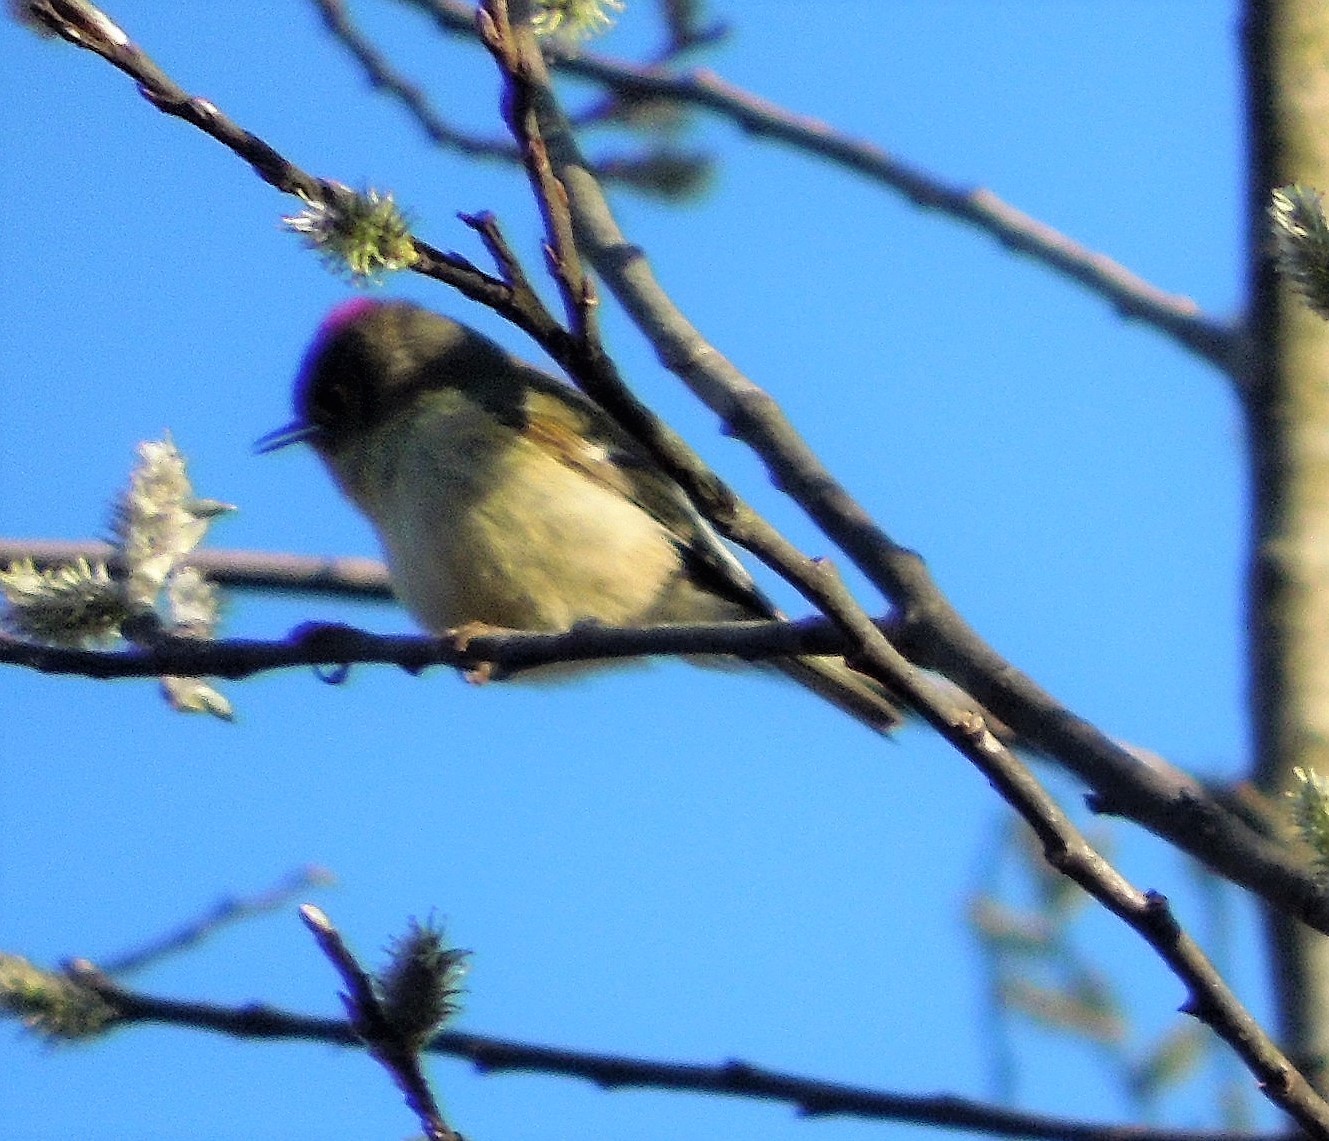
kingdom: Animalia
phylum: Chordata
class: Aves
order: Passeriformes
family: Regulidae
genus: Regulus
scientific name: Regulus calendula
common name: Ruby-crowned kinglet
